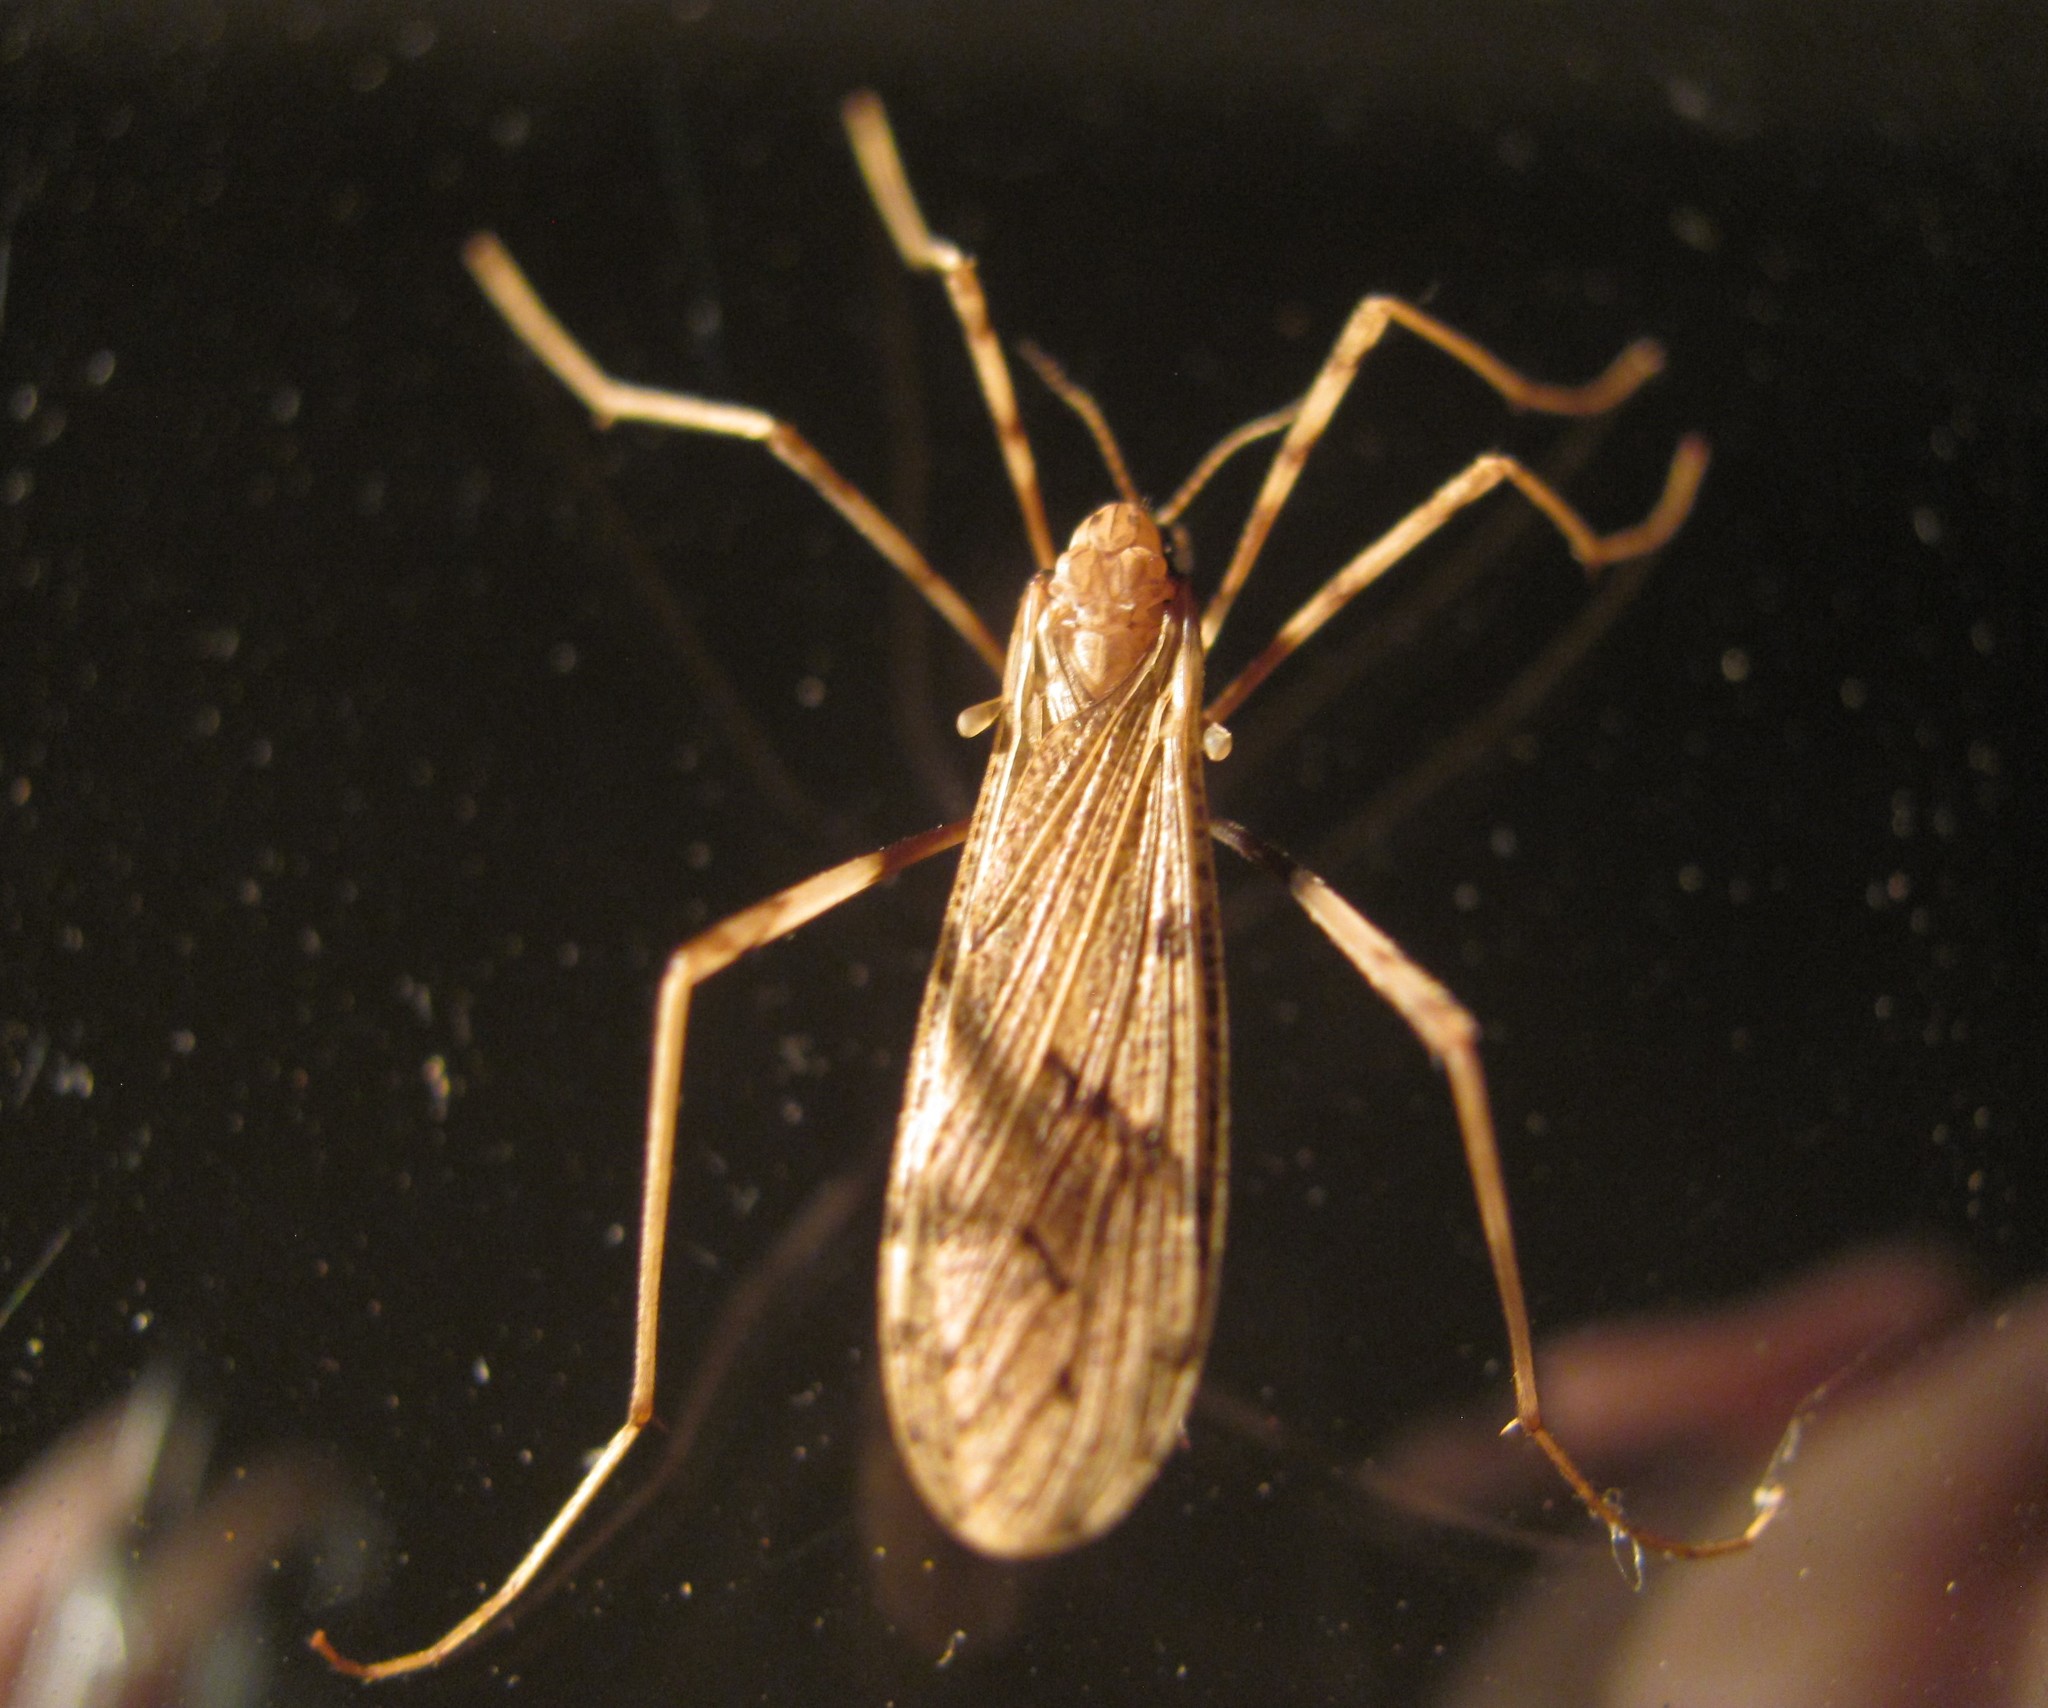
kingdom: Animalia
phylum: Arthropoda
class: Insecta
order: Diptera
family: Limoniidae
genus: Rhamphophila
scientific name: Rhamphophila sinistra
